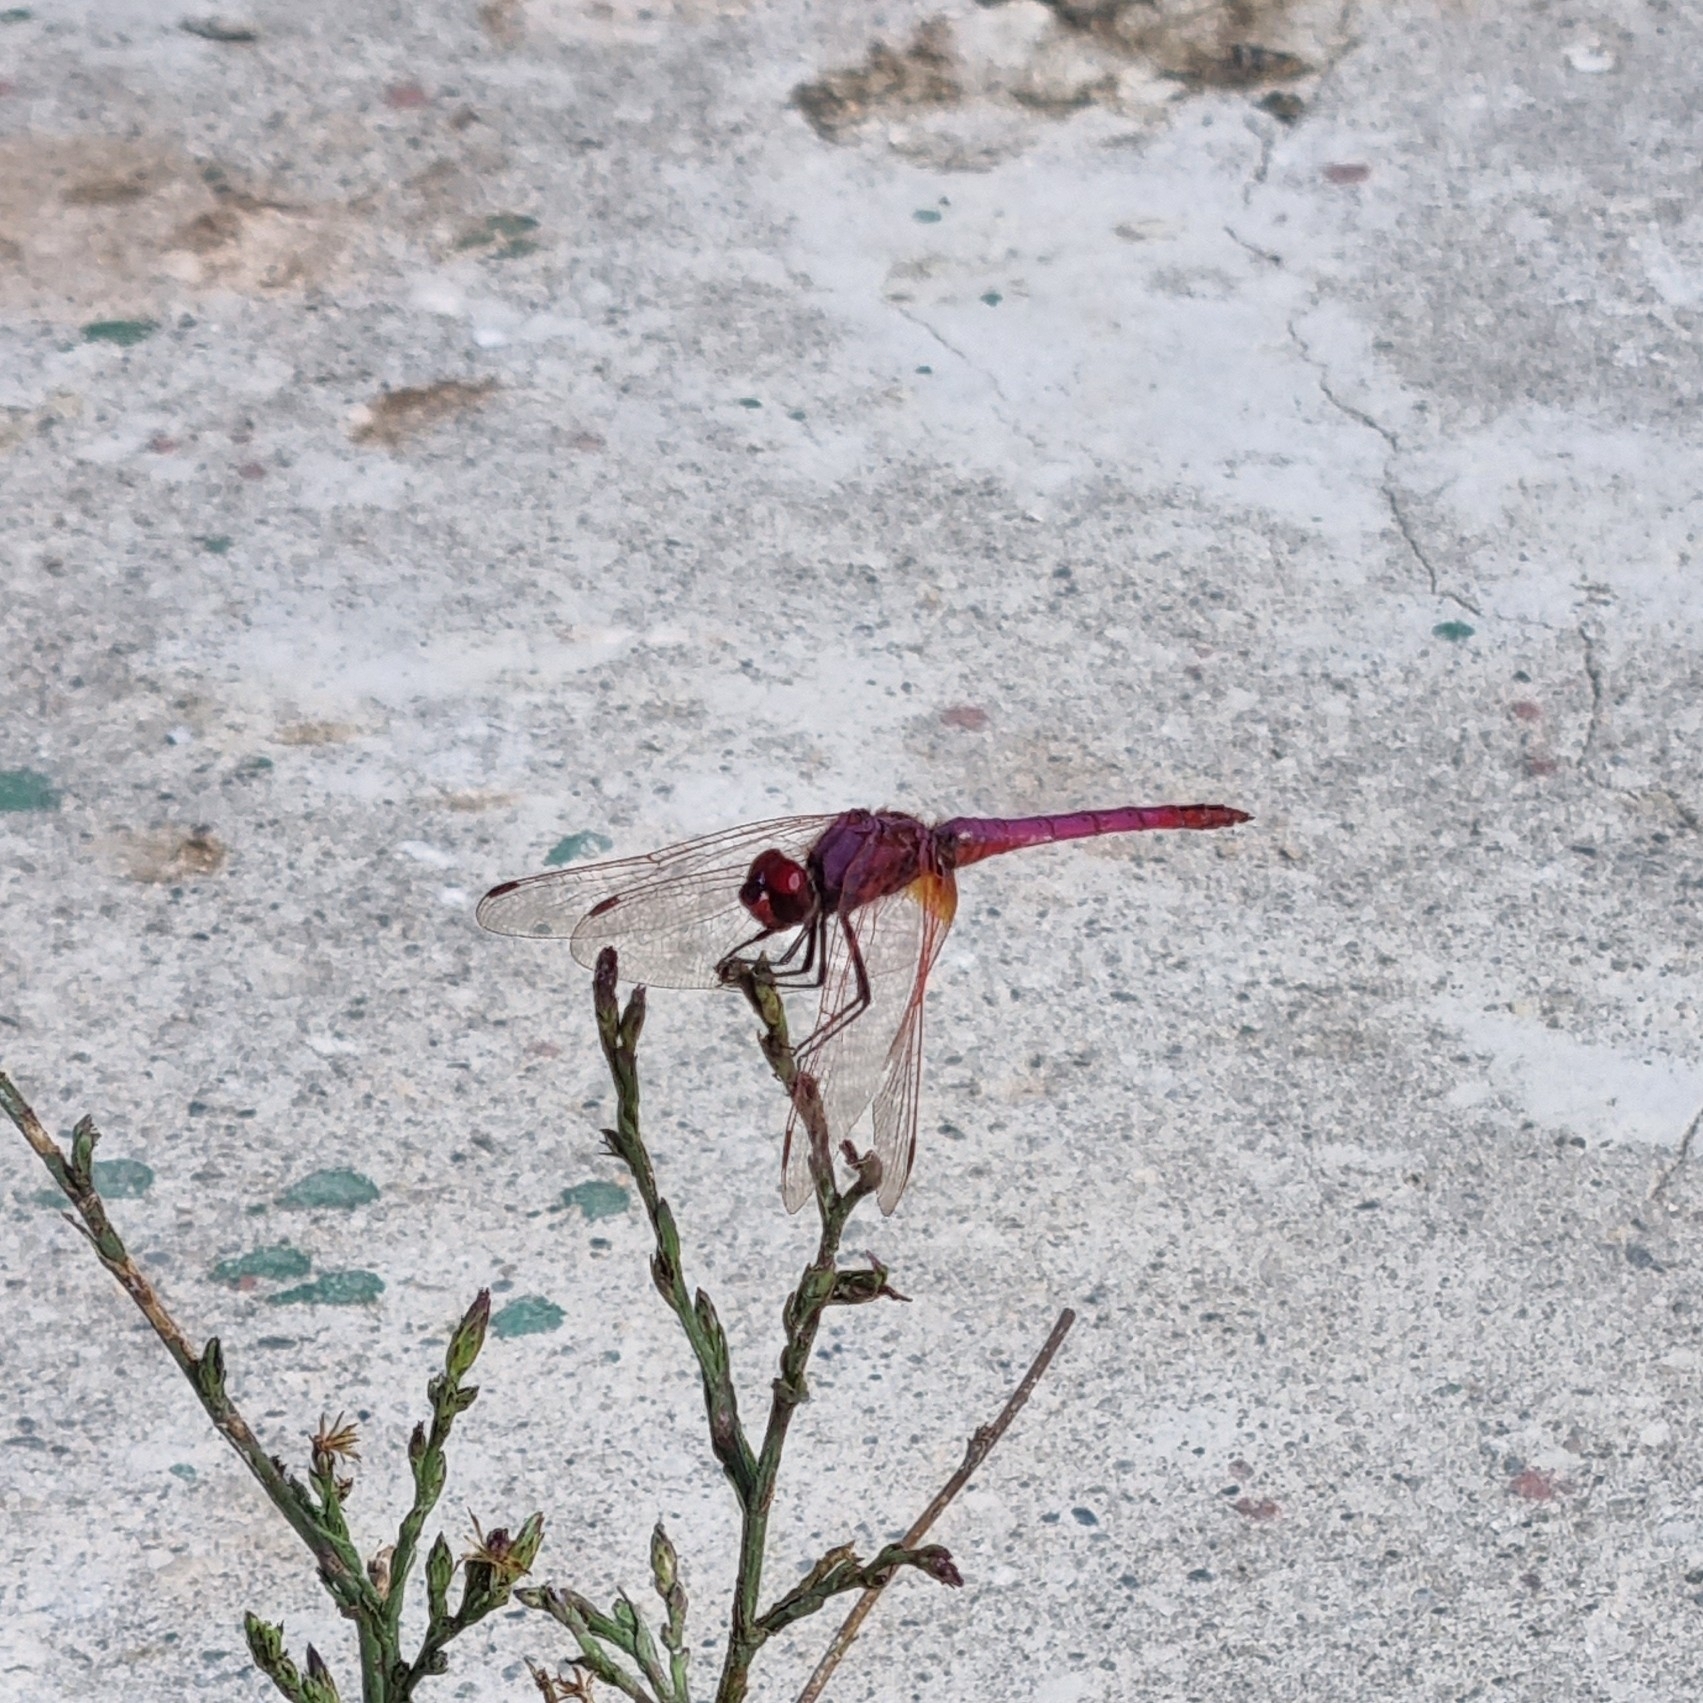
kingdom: Animalia
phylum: Arthropoda
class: Insecta
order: Odonata
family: Libellulidae
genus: Trithemis
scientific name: Trithemis annulata
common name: Violet dropwing
